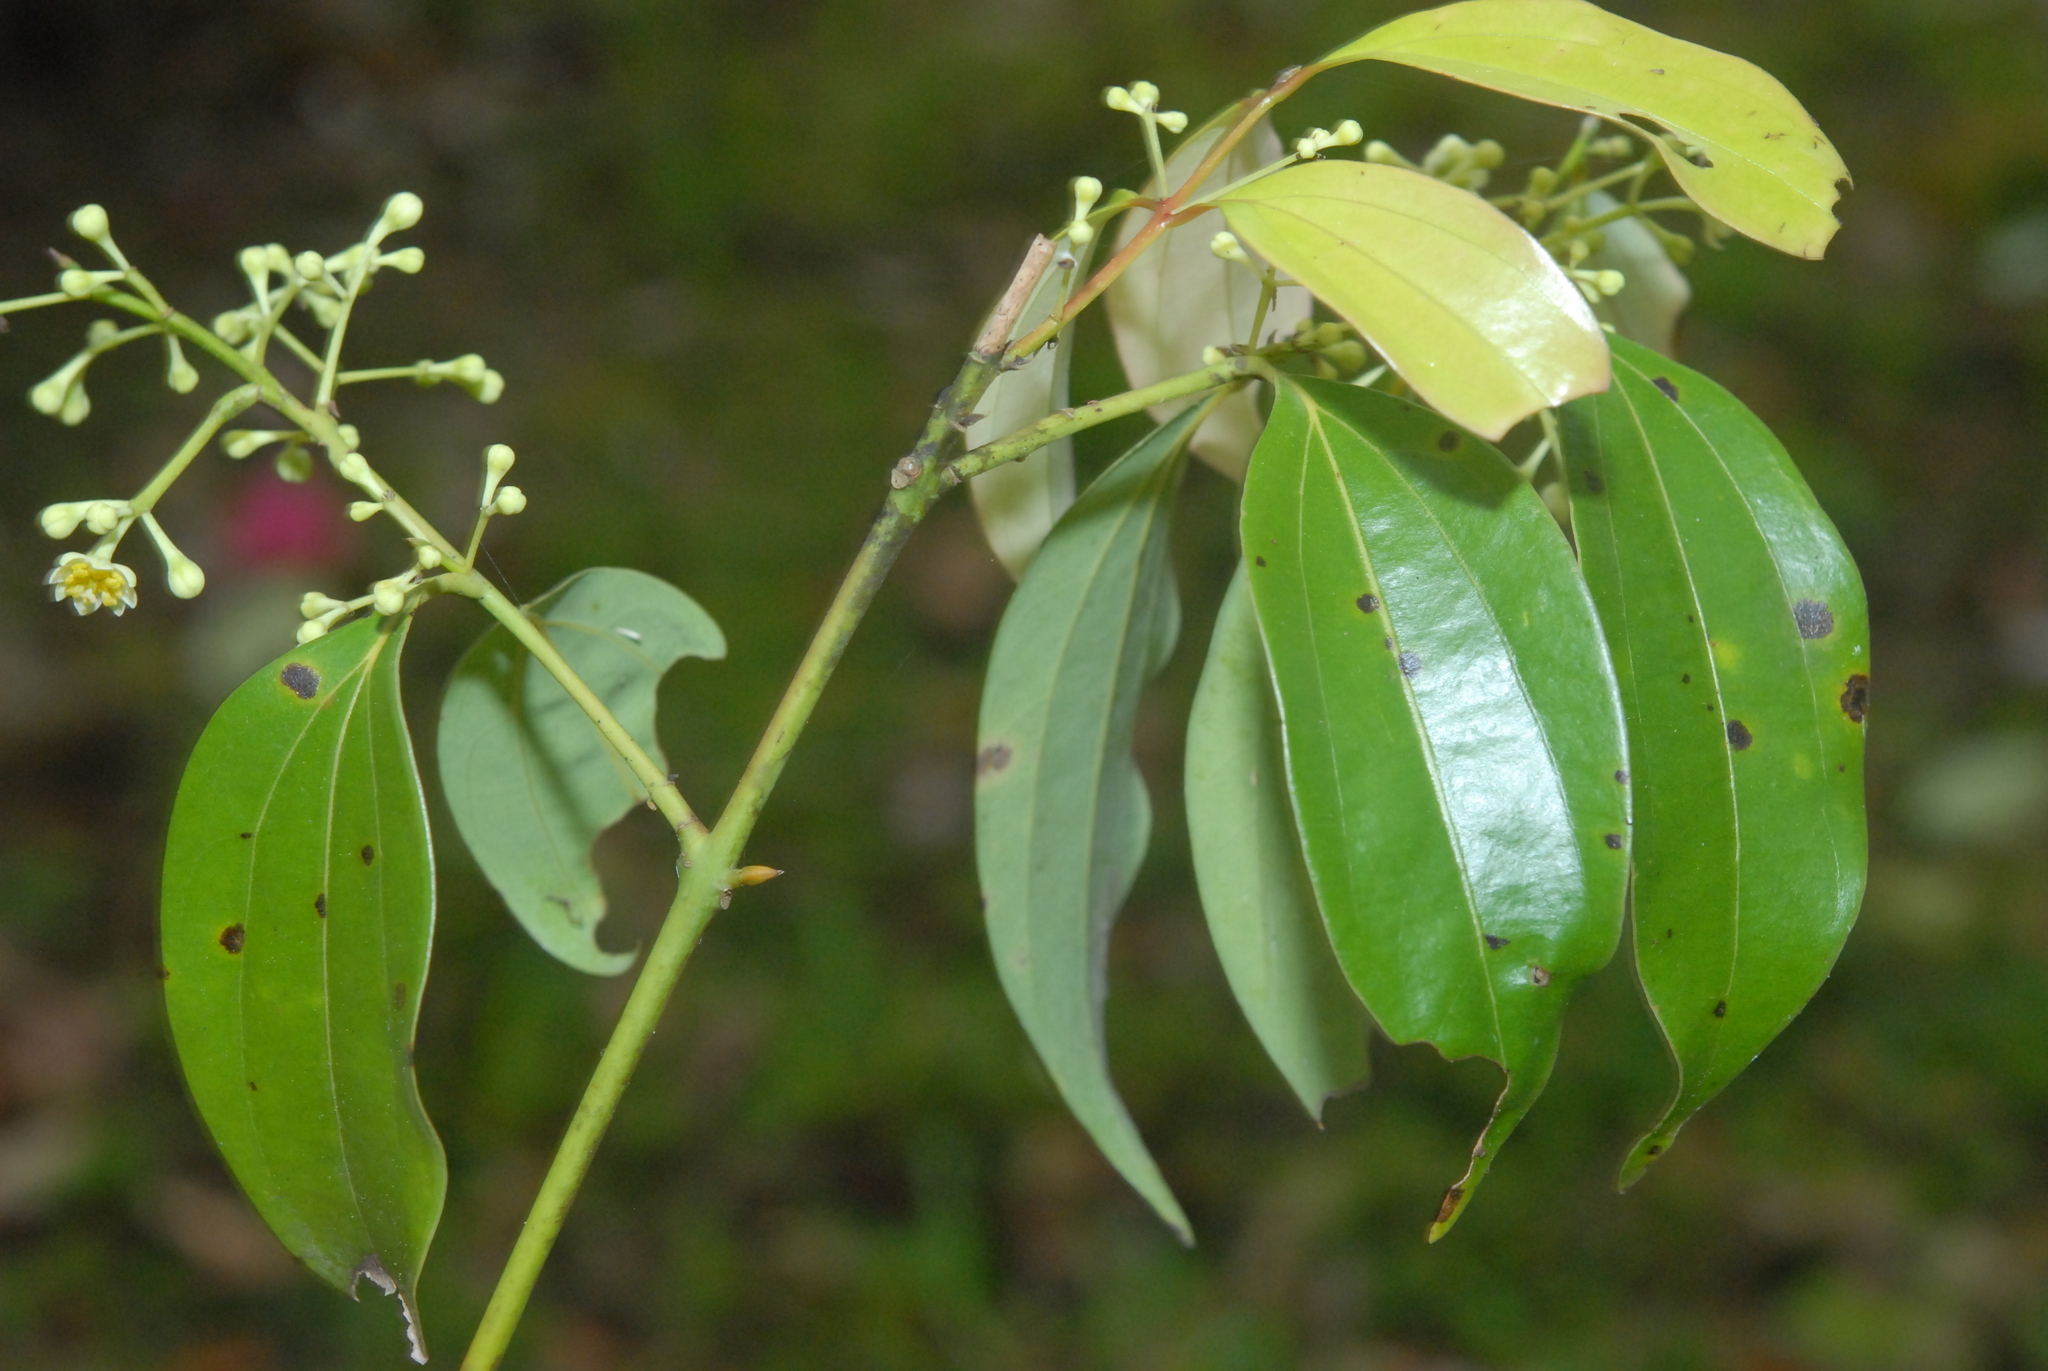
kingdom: Plantae
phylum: Tracheophyta
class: Magnoliopsida
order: Laurales
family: Lauraceae
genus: Cinnamomum
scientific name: Cinnamomum osmophloeum
